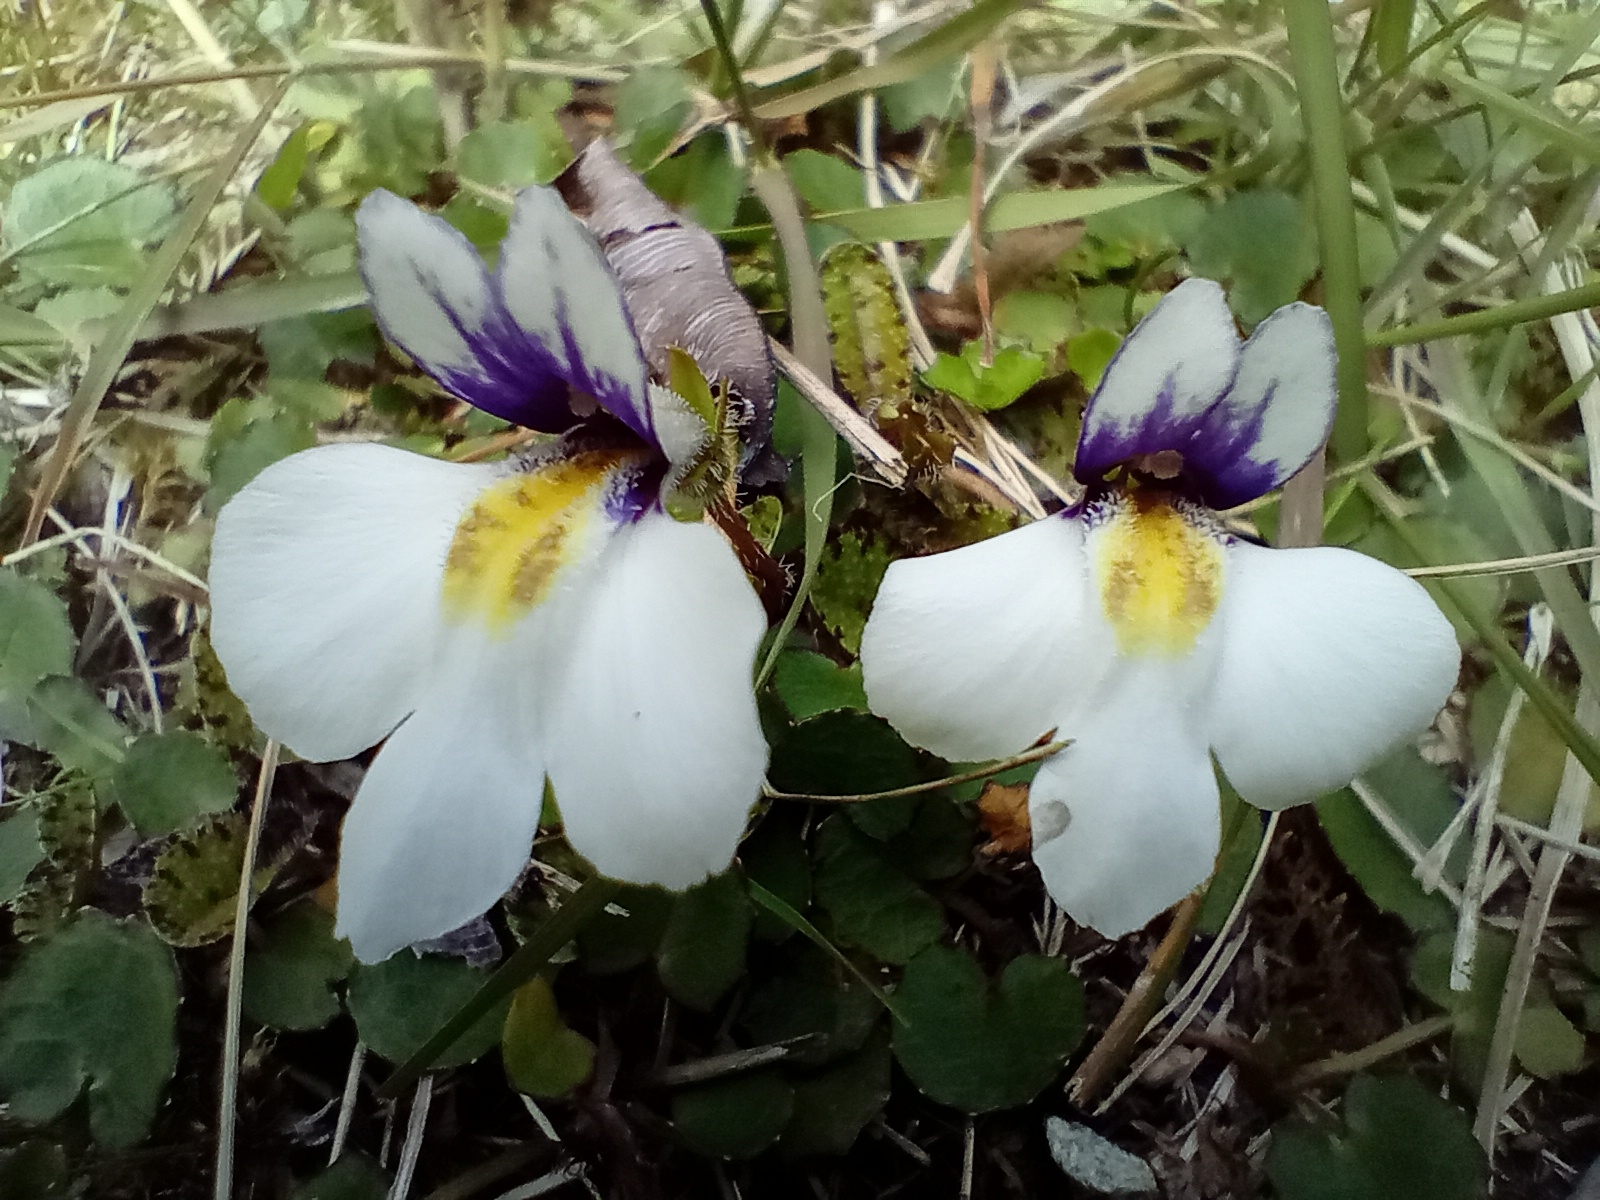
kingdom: Plantae
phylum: Tracheophyta
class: Magnoliopsida
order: Lamiales
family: Mazaceae
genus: Mazus
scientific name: Mazus radicans
